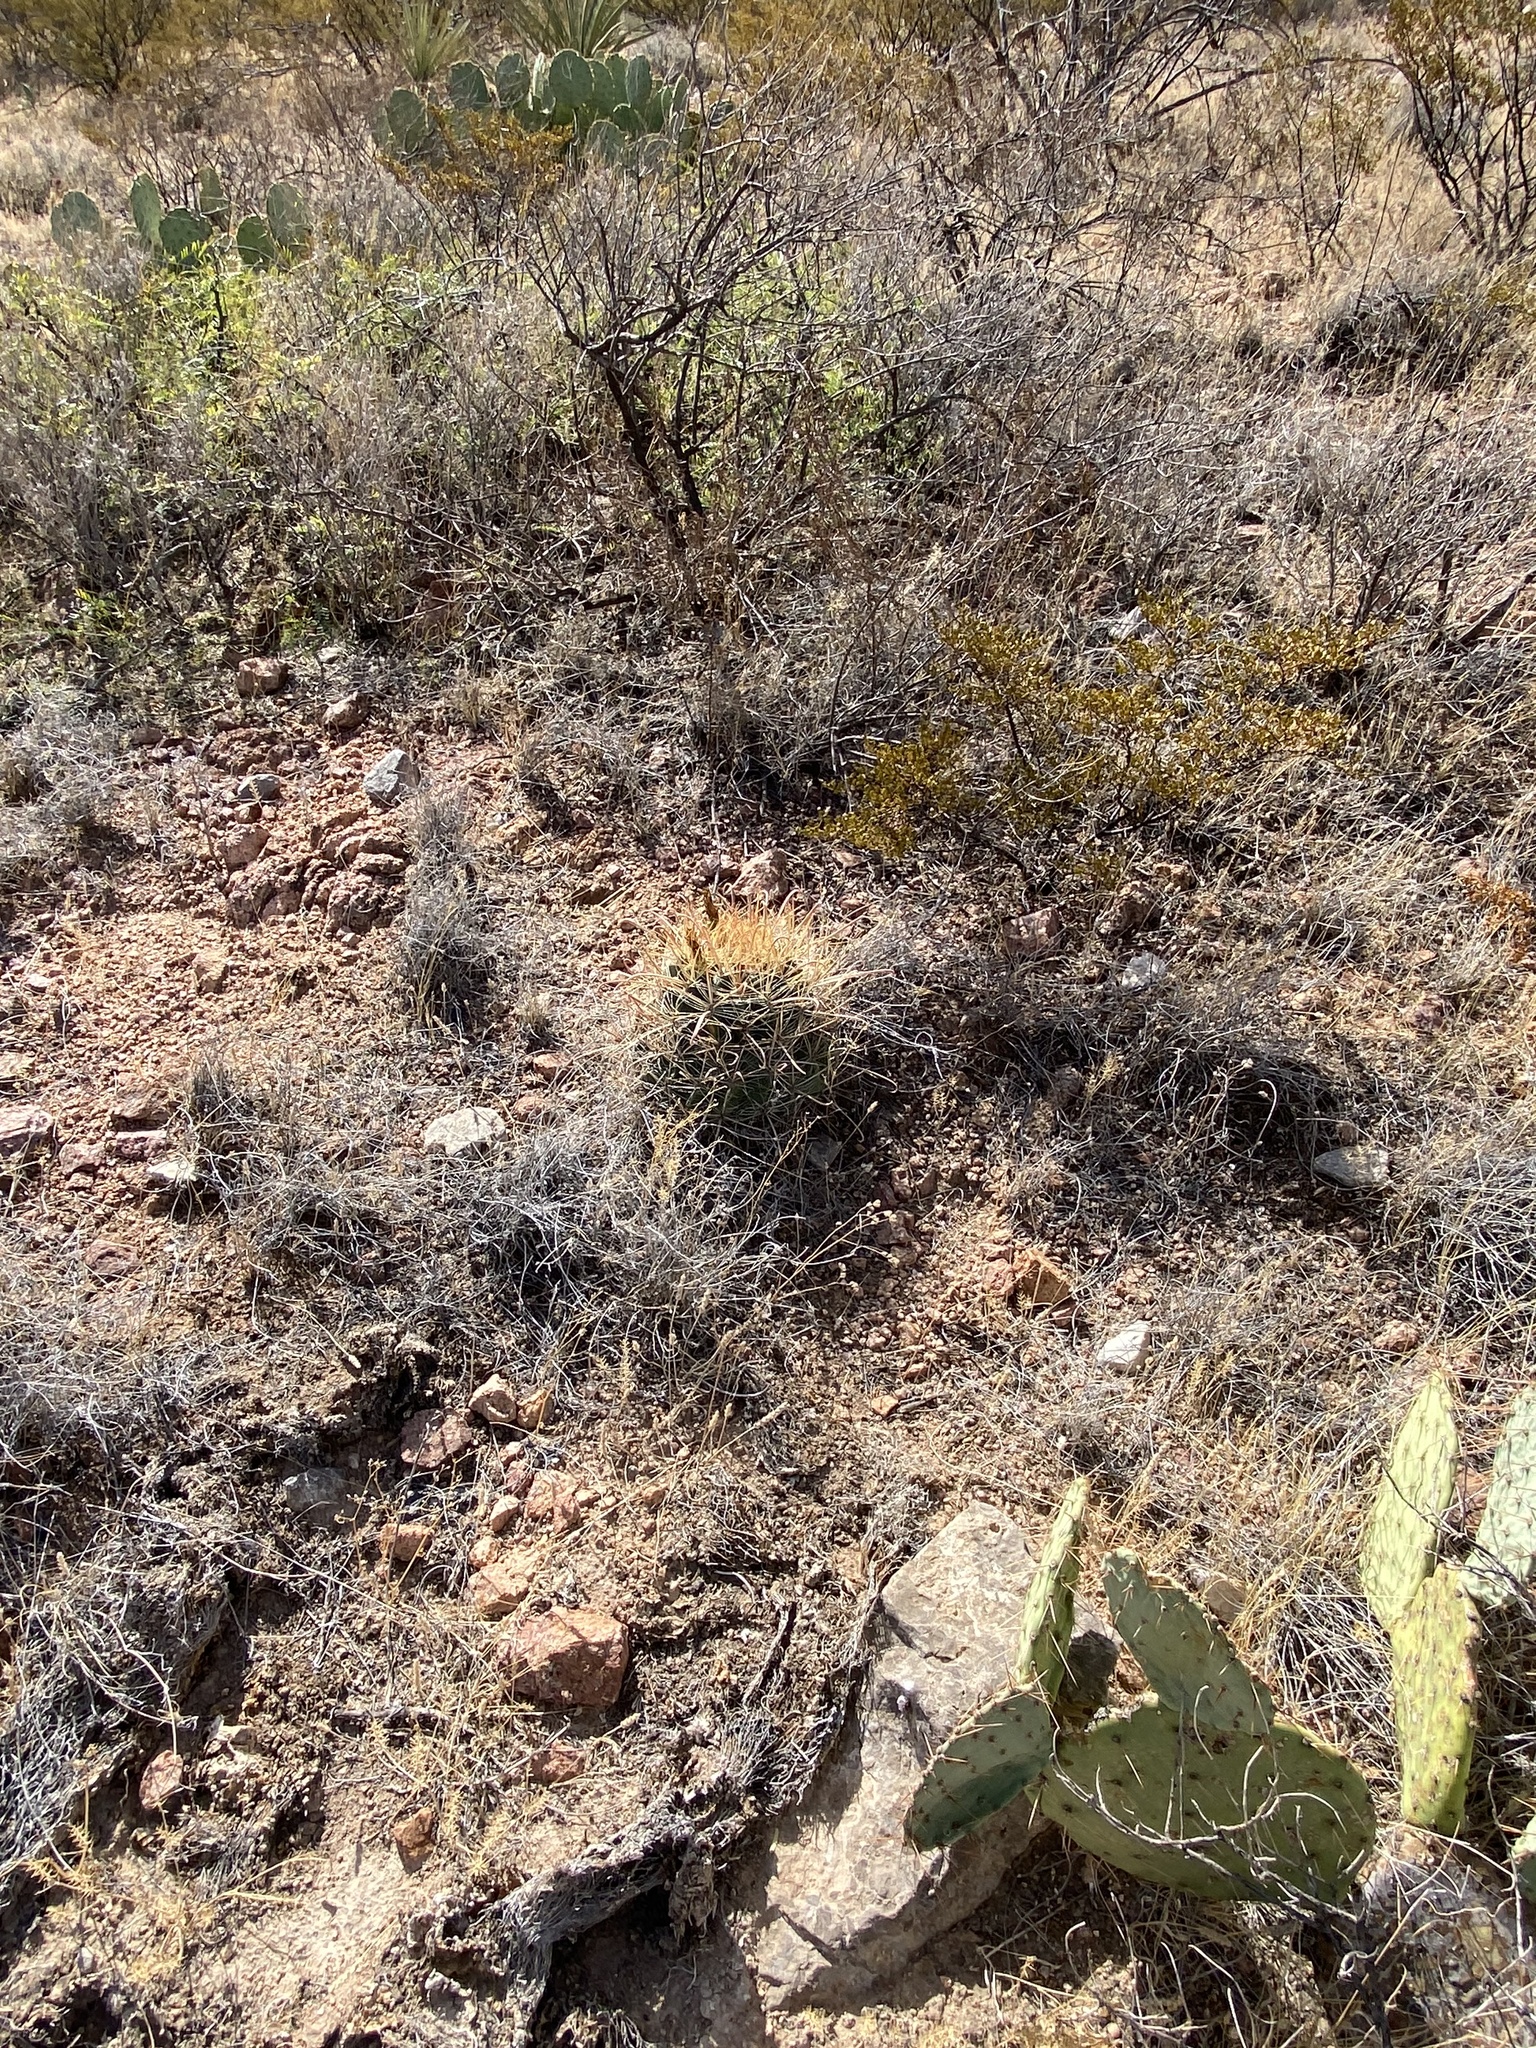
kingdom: Plantae
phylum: Tracheophyta
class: Magnoliopsida
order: Caryophyllales
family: Cactaceae
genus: Ferocactus
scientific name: Ferocactus uncinatus
